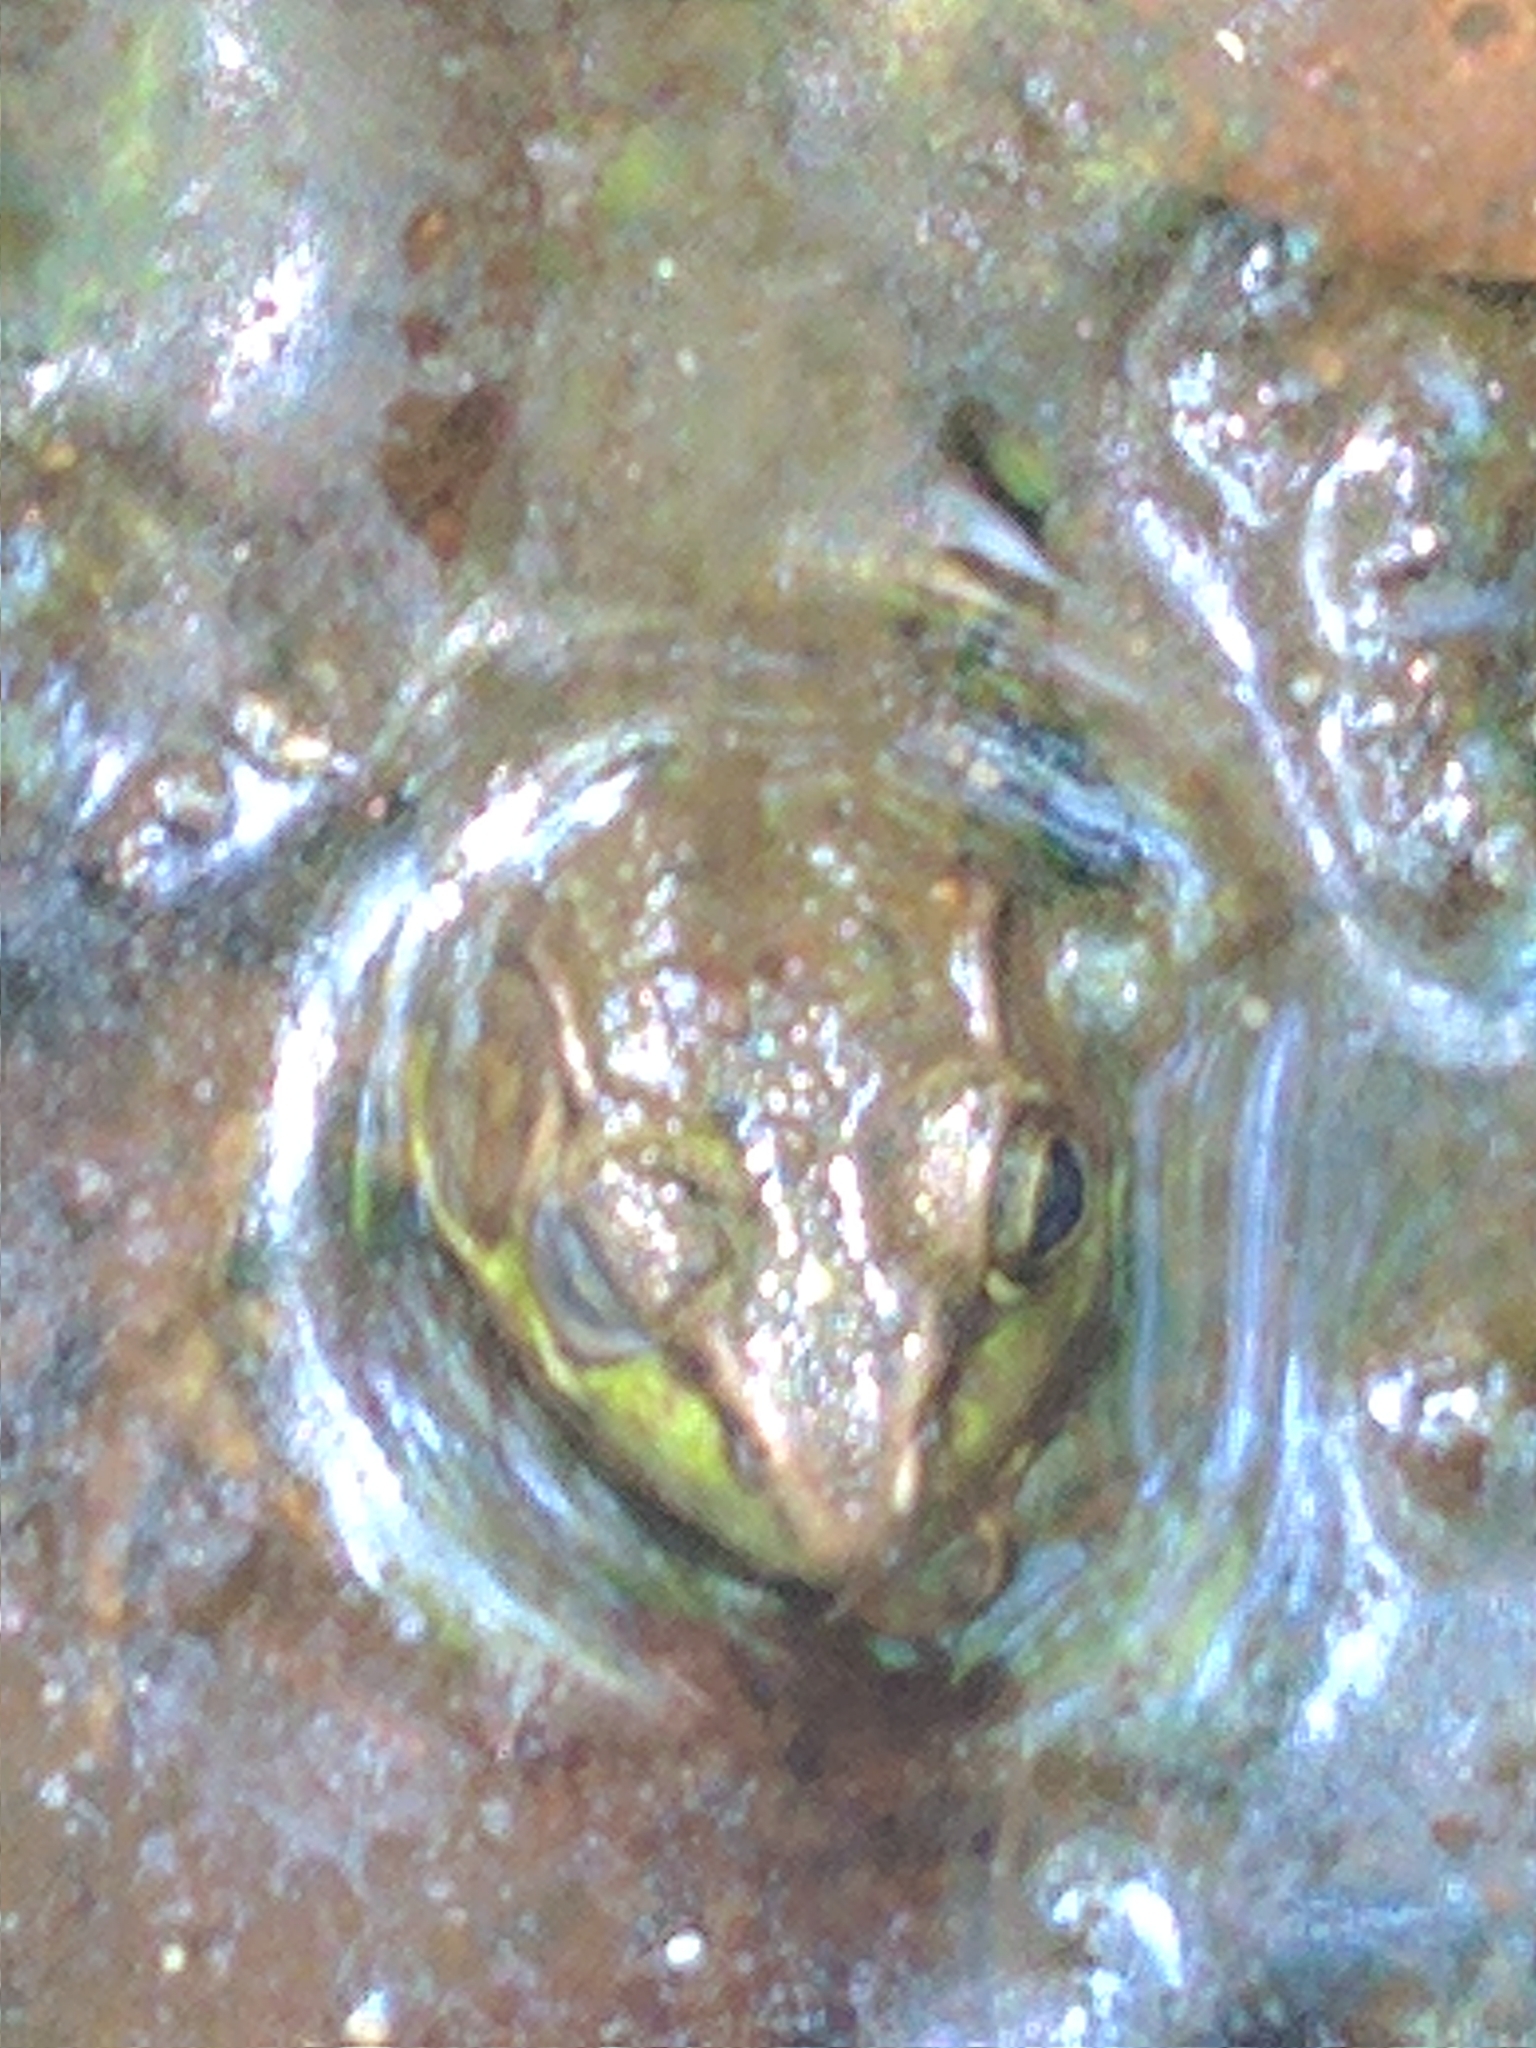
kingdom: Animalia
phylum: Chordata
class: Amphibia
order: Anura
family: Ranidae
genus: Lithobates
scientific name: Lithobates clamitans
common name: Green frog
